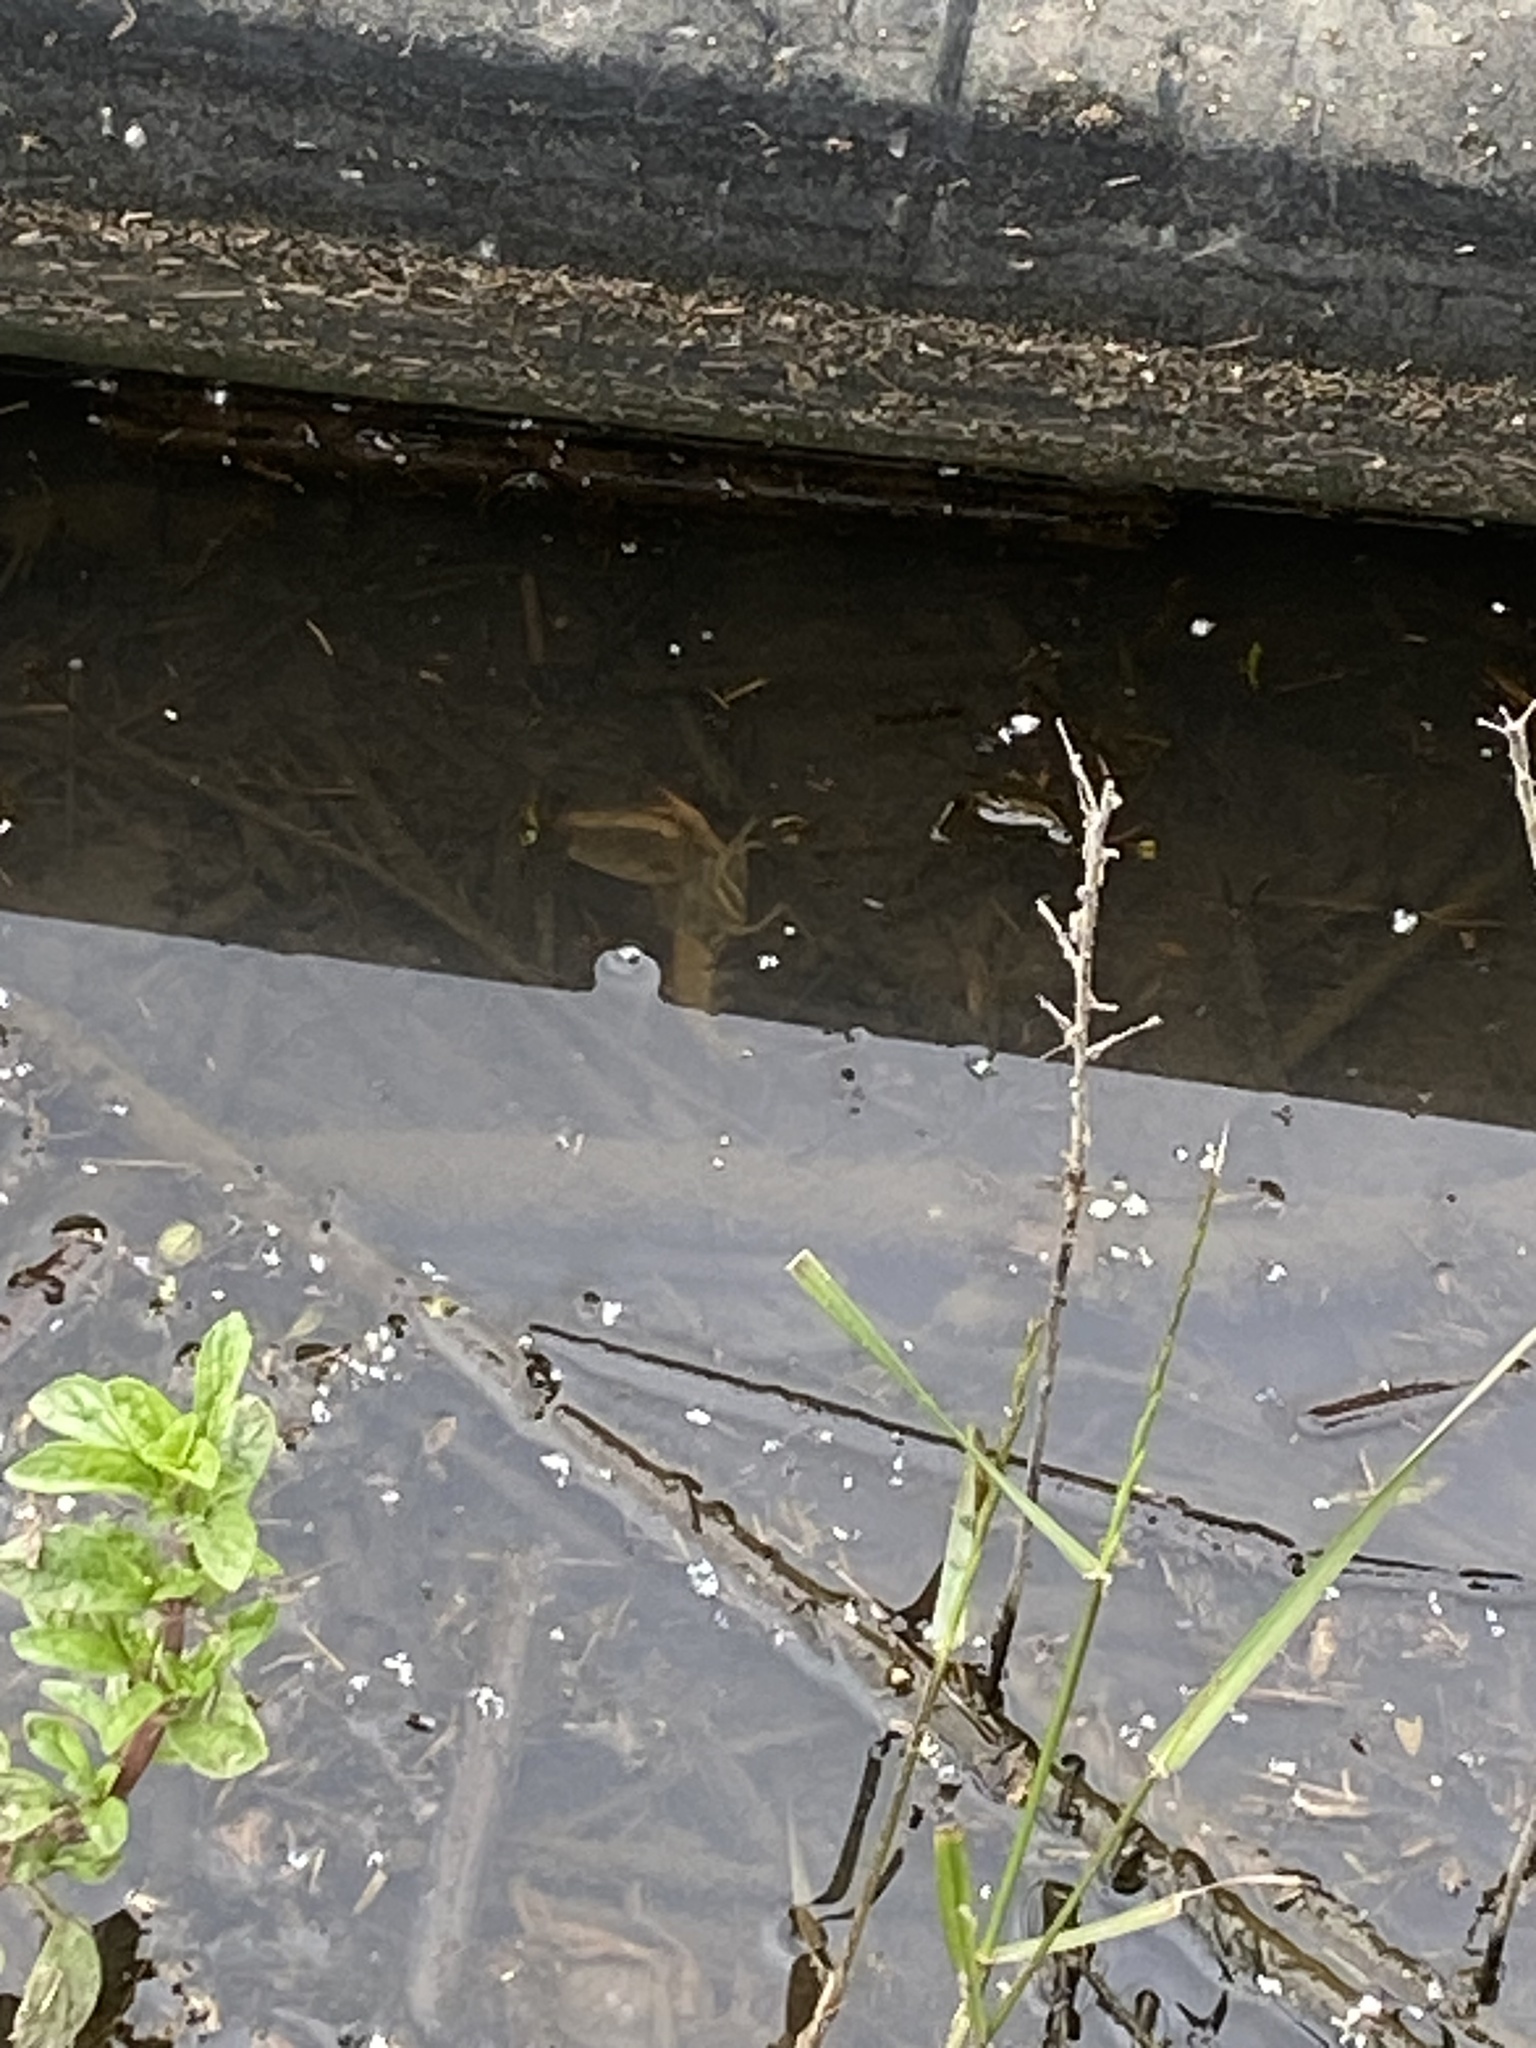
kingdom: Animalia
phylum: Arthropoda
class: Malacostraca
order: Decapoda
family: Cambaridae
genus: Procambarus
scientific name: Procambarus clarkii
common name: Red swamp crayfish
